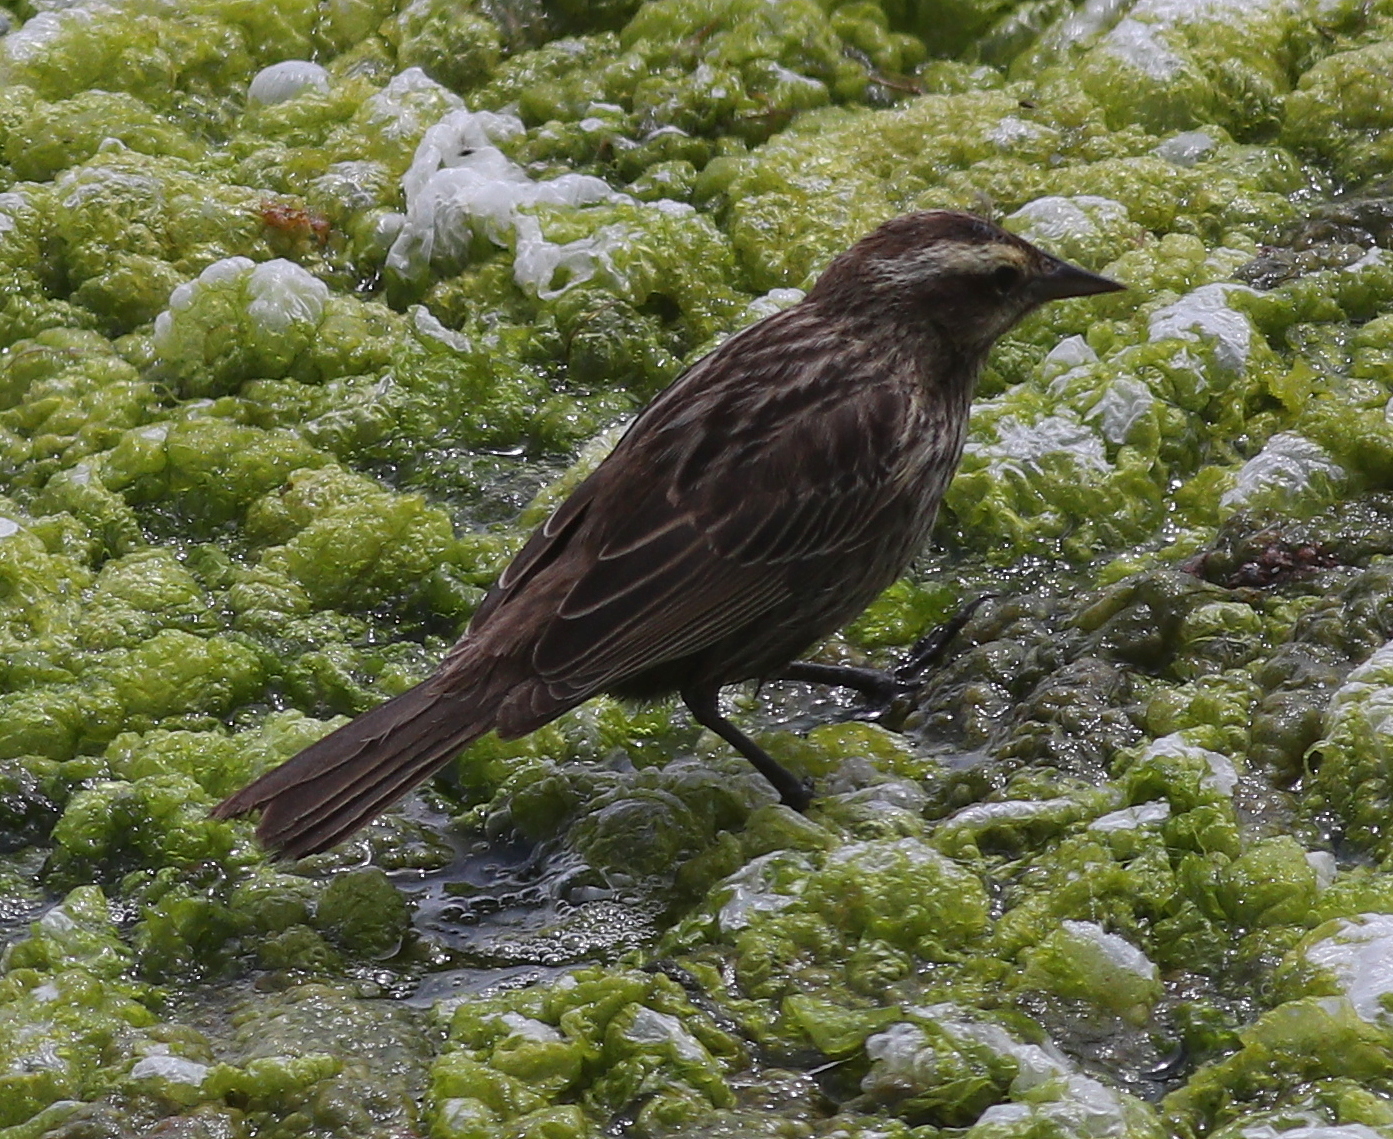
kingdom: Animalia
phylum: Chordata
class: Aves
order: Passeriformes
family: Icteridae
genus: Agelasticus
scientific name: Agelasticus thilius
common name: Yellow-winged blackbird
